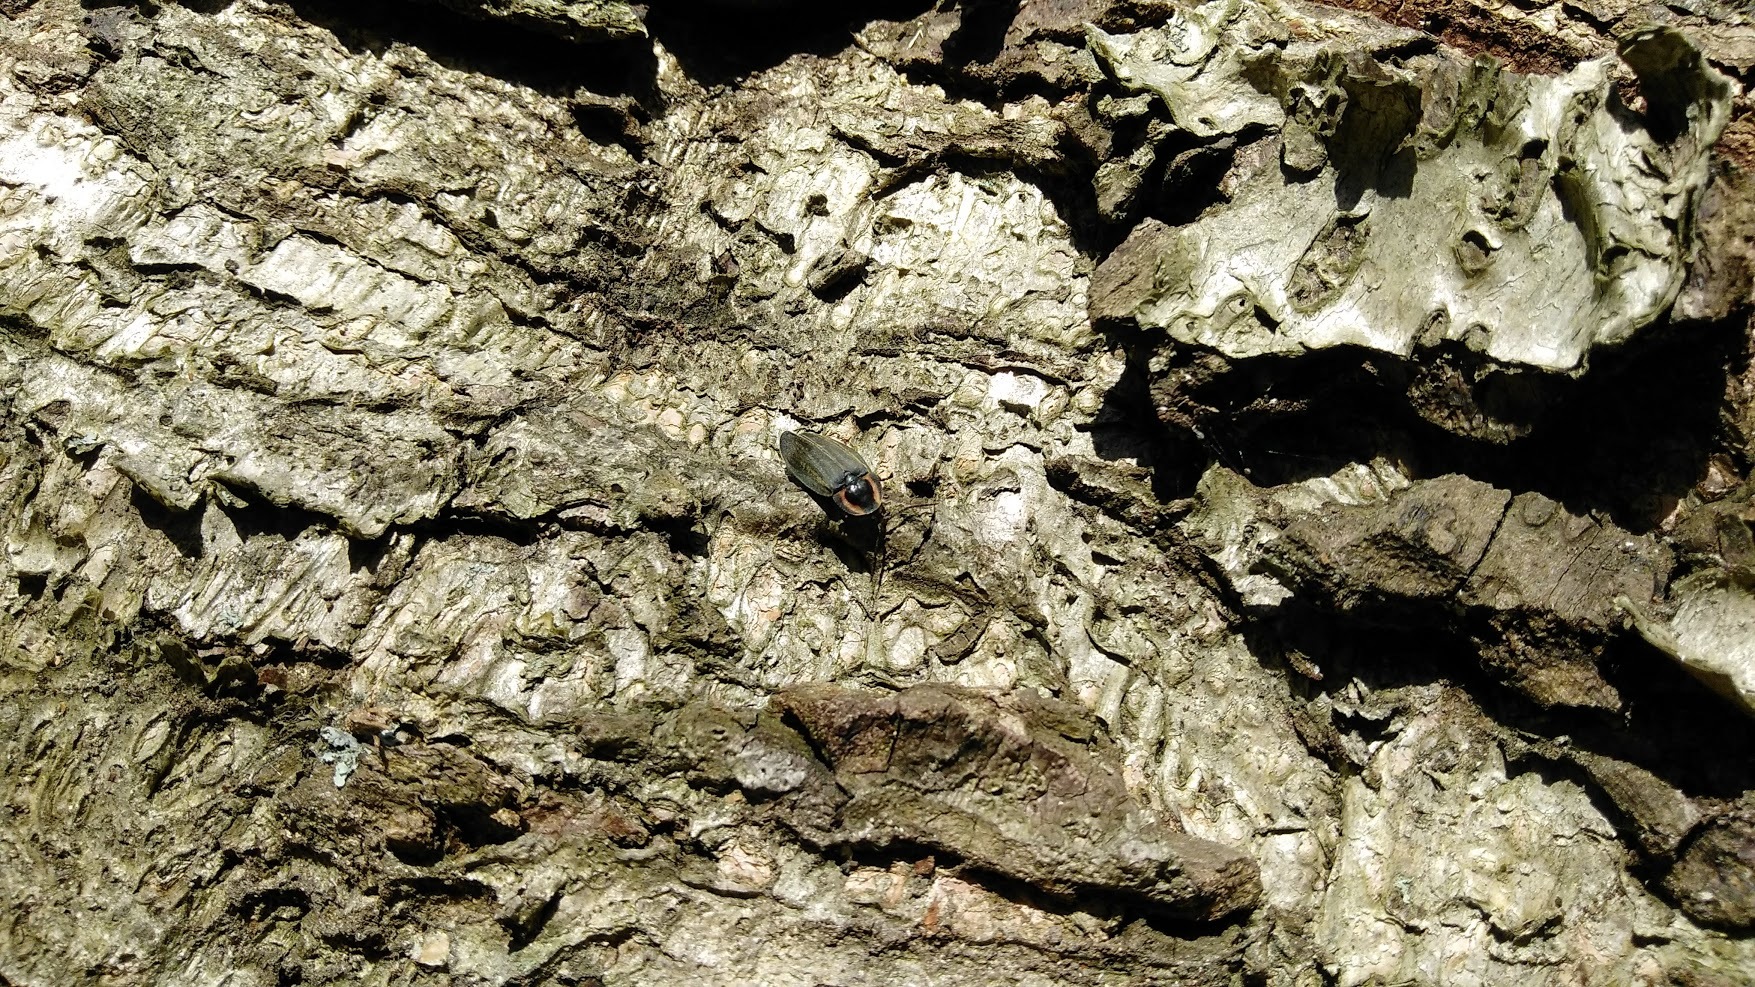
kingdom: Animalia
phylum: Arthropoda
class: Insecta
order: Coleoptera
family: Lampyridae
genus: Photinus
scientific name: Photinus corrusca
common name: Winter firefly
